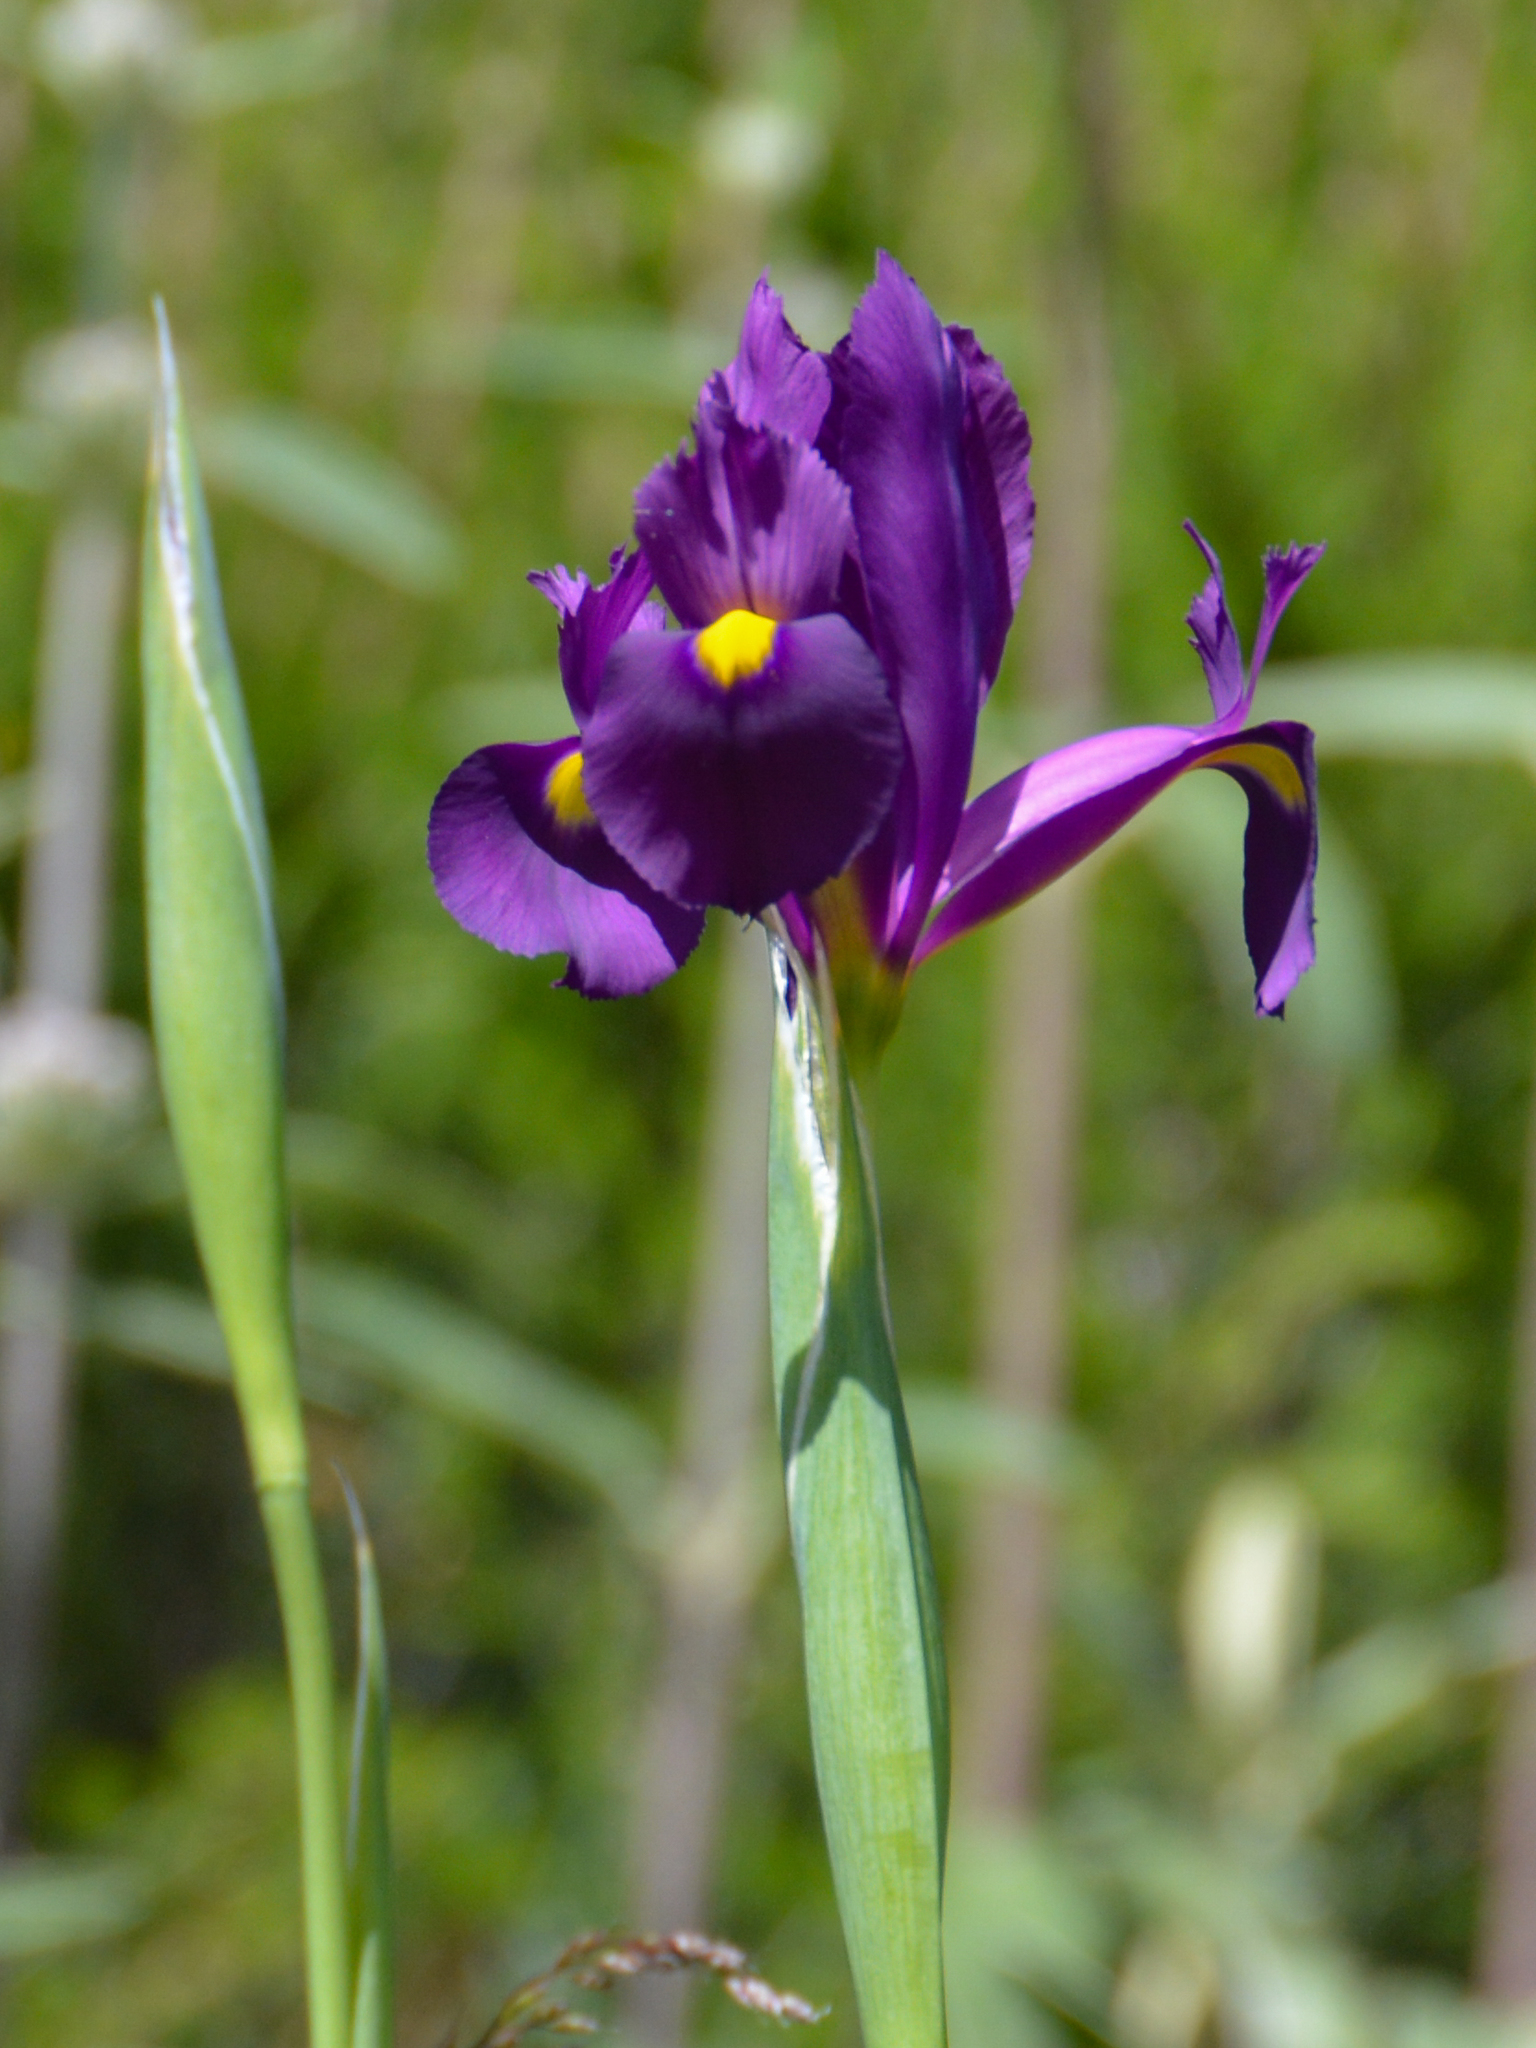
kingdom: Plantae
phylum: Tracheophyta
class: Liliopsida
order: Asparagales
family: Iridaceae
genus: Iris
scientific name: Iris filifolia
